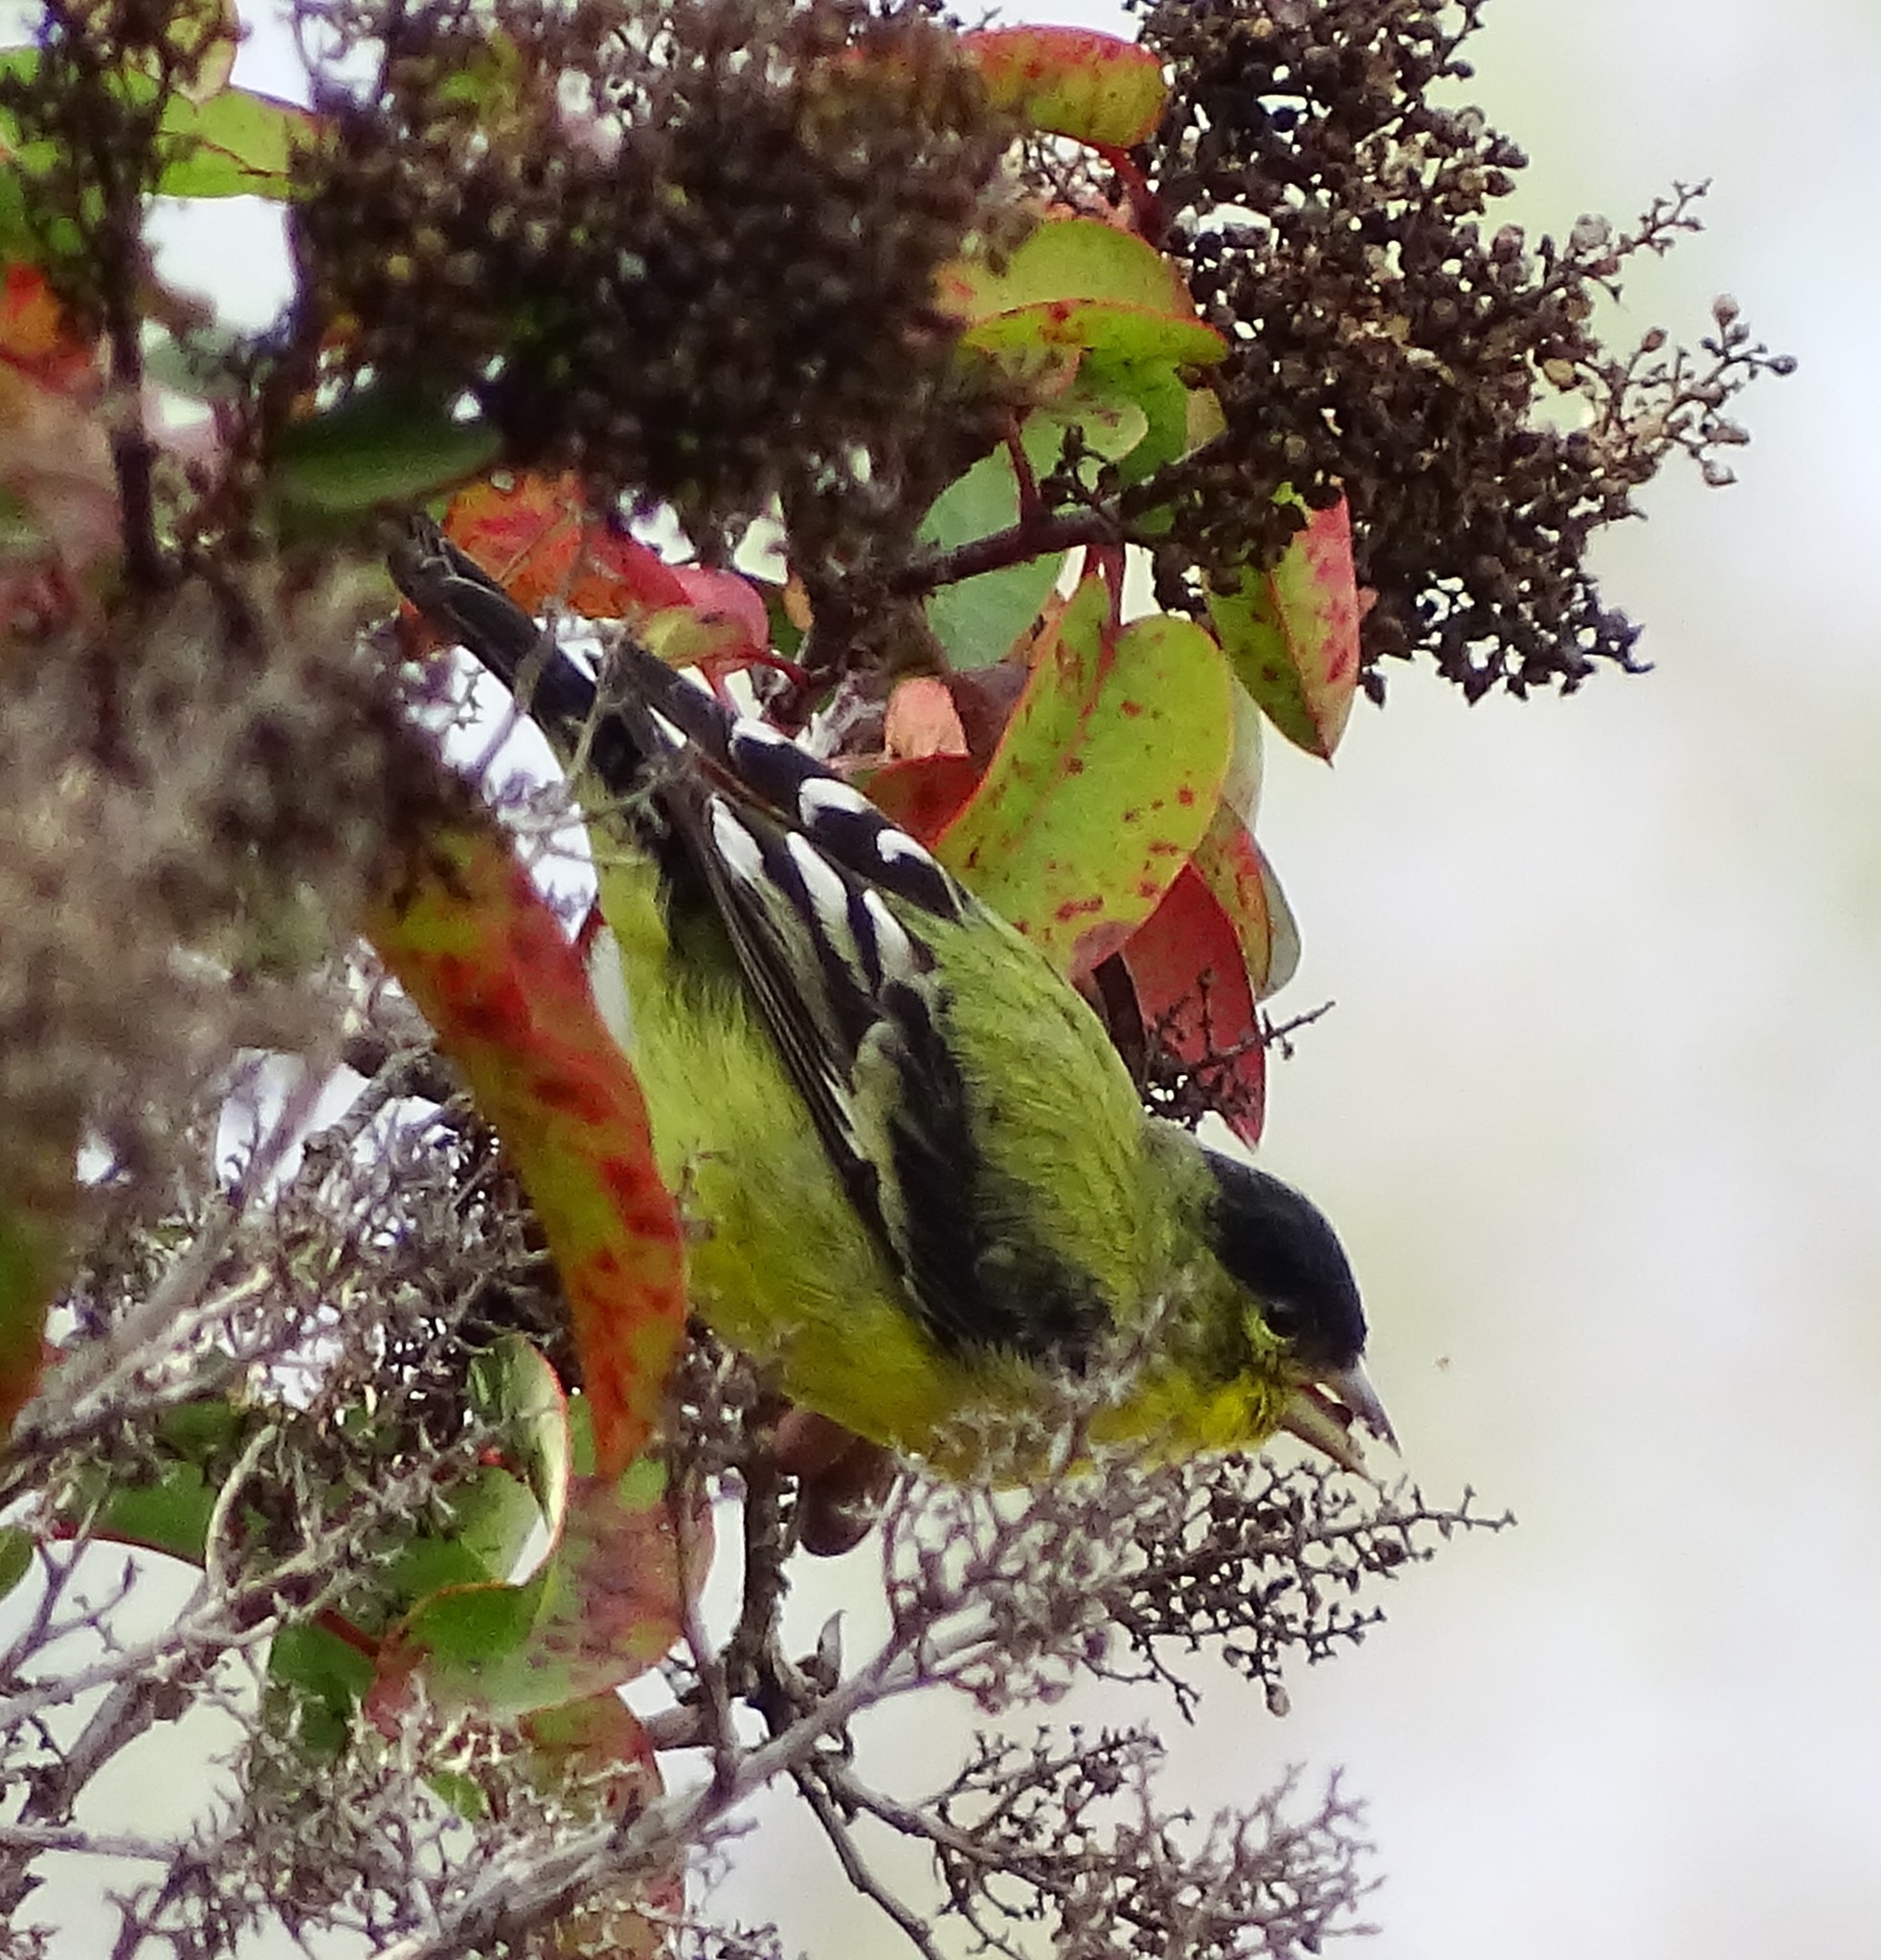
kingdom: Animalia
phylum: Chordata
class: Aves
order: Passeriformes
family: Fringillidae
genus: Spinus
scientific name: Spinus psaltria
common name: Lesser goldfinch
